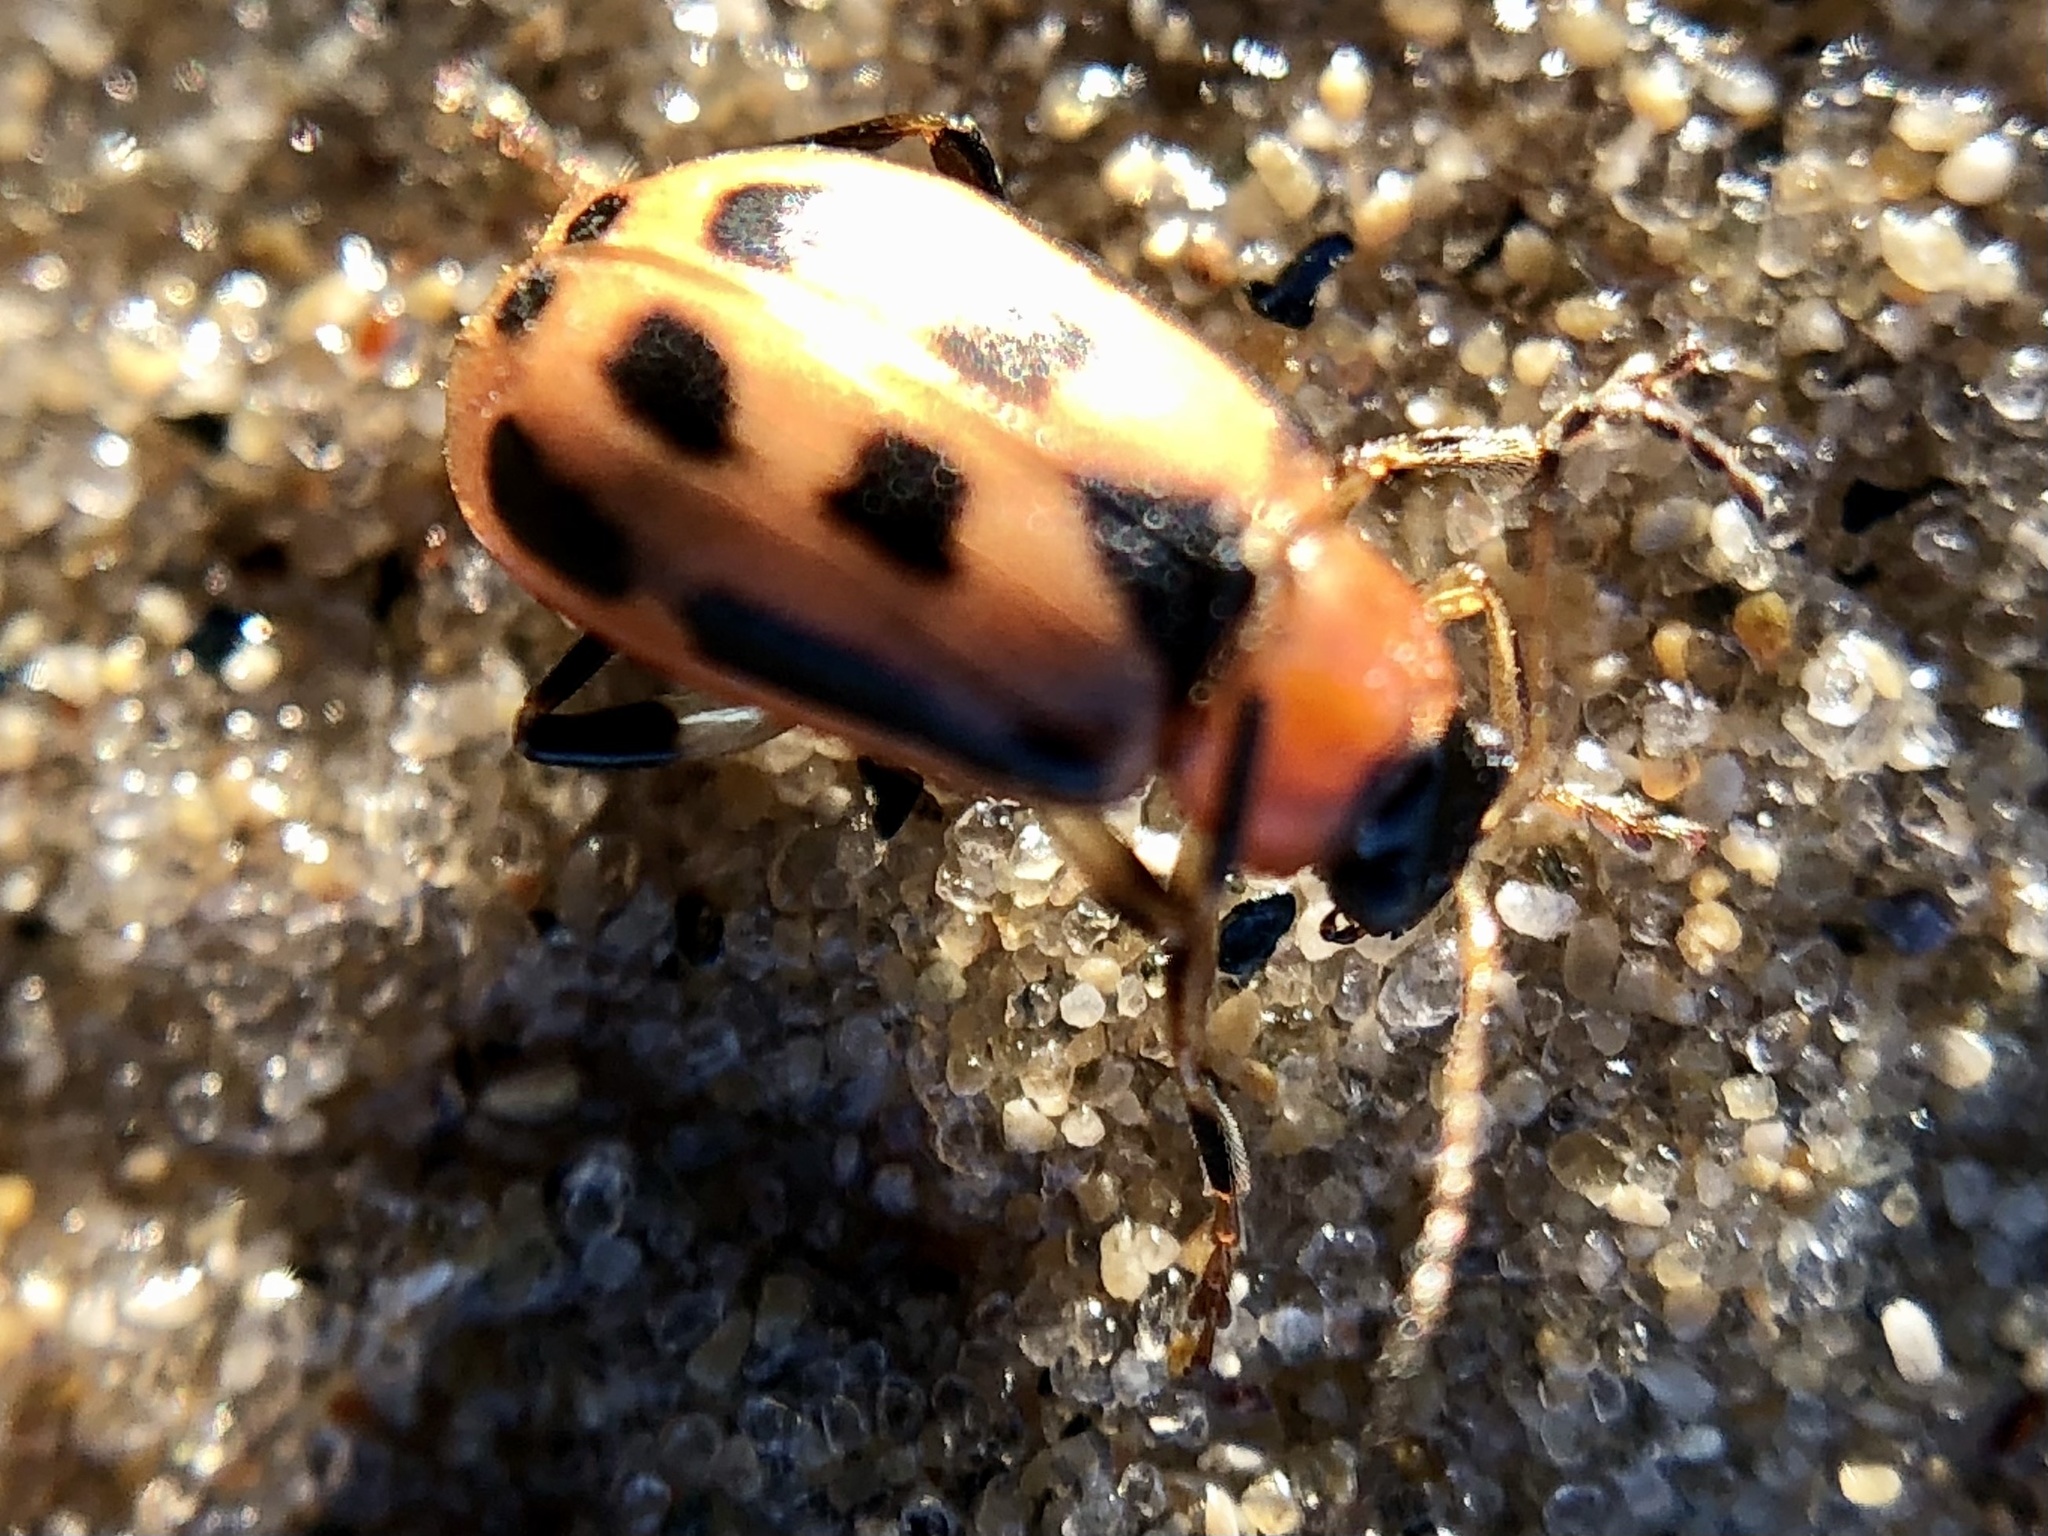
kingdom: Animalia
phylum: Arthropoda
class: Insecta
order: Coleoptera
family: Chrysomelidae
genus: Cerotoma
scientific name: Cerotoma trifurcata
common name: Bean leaf beetle
